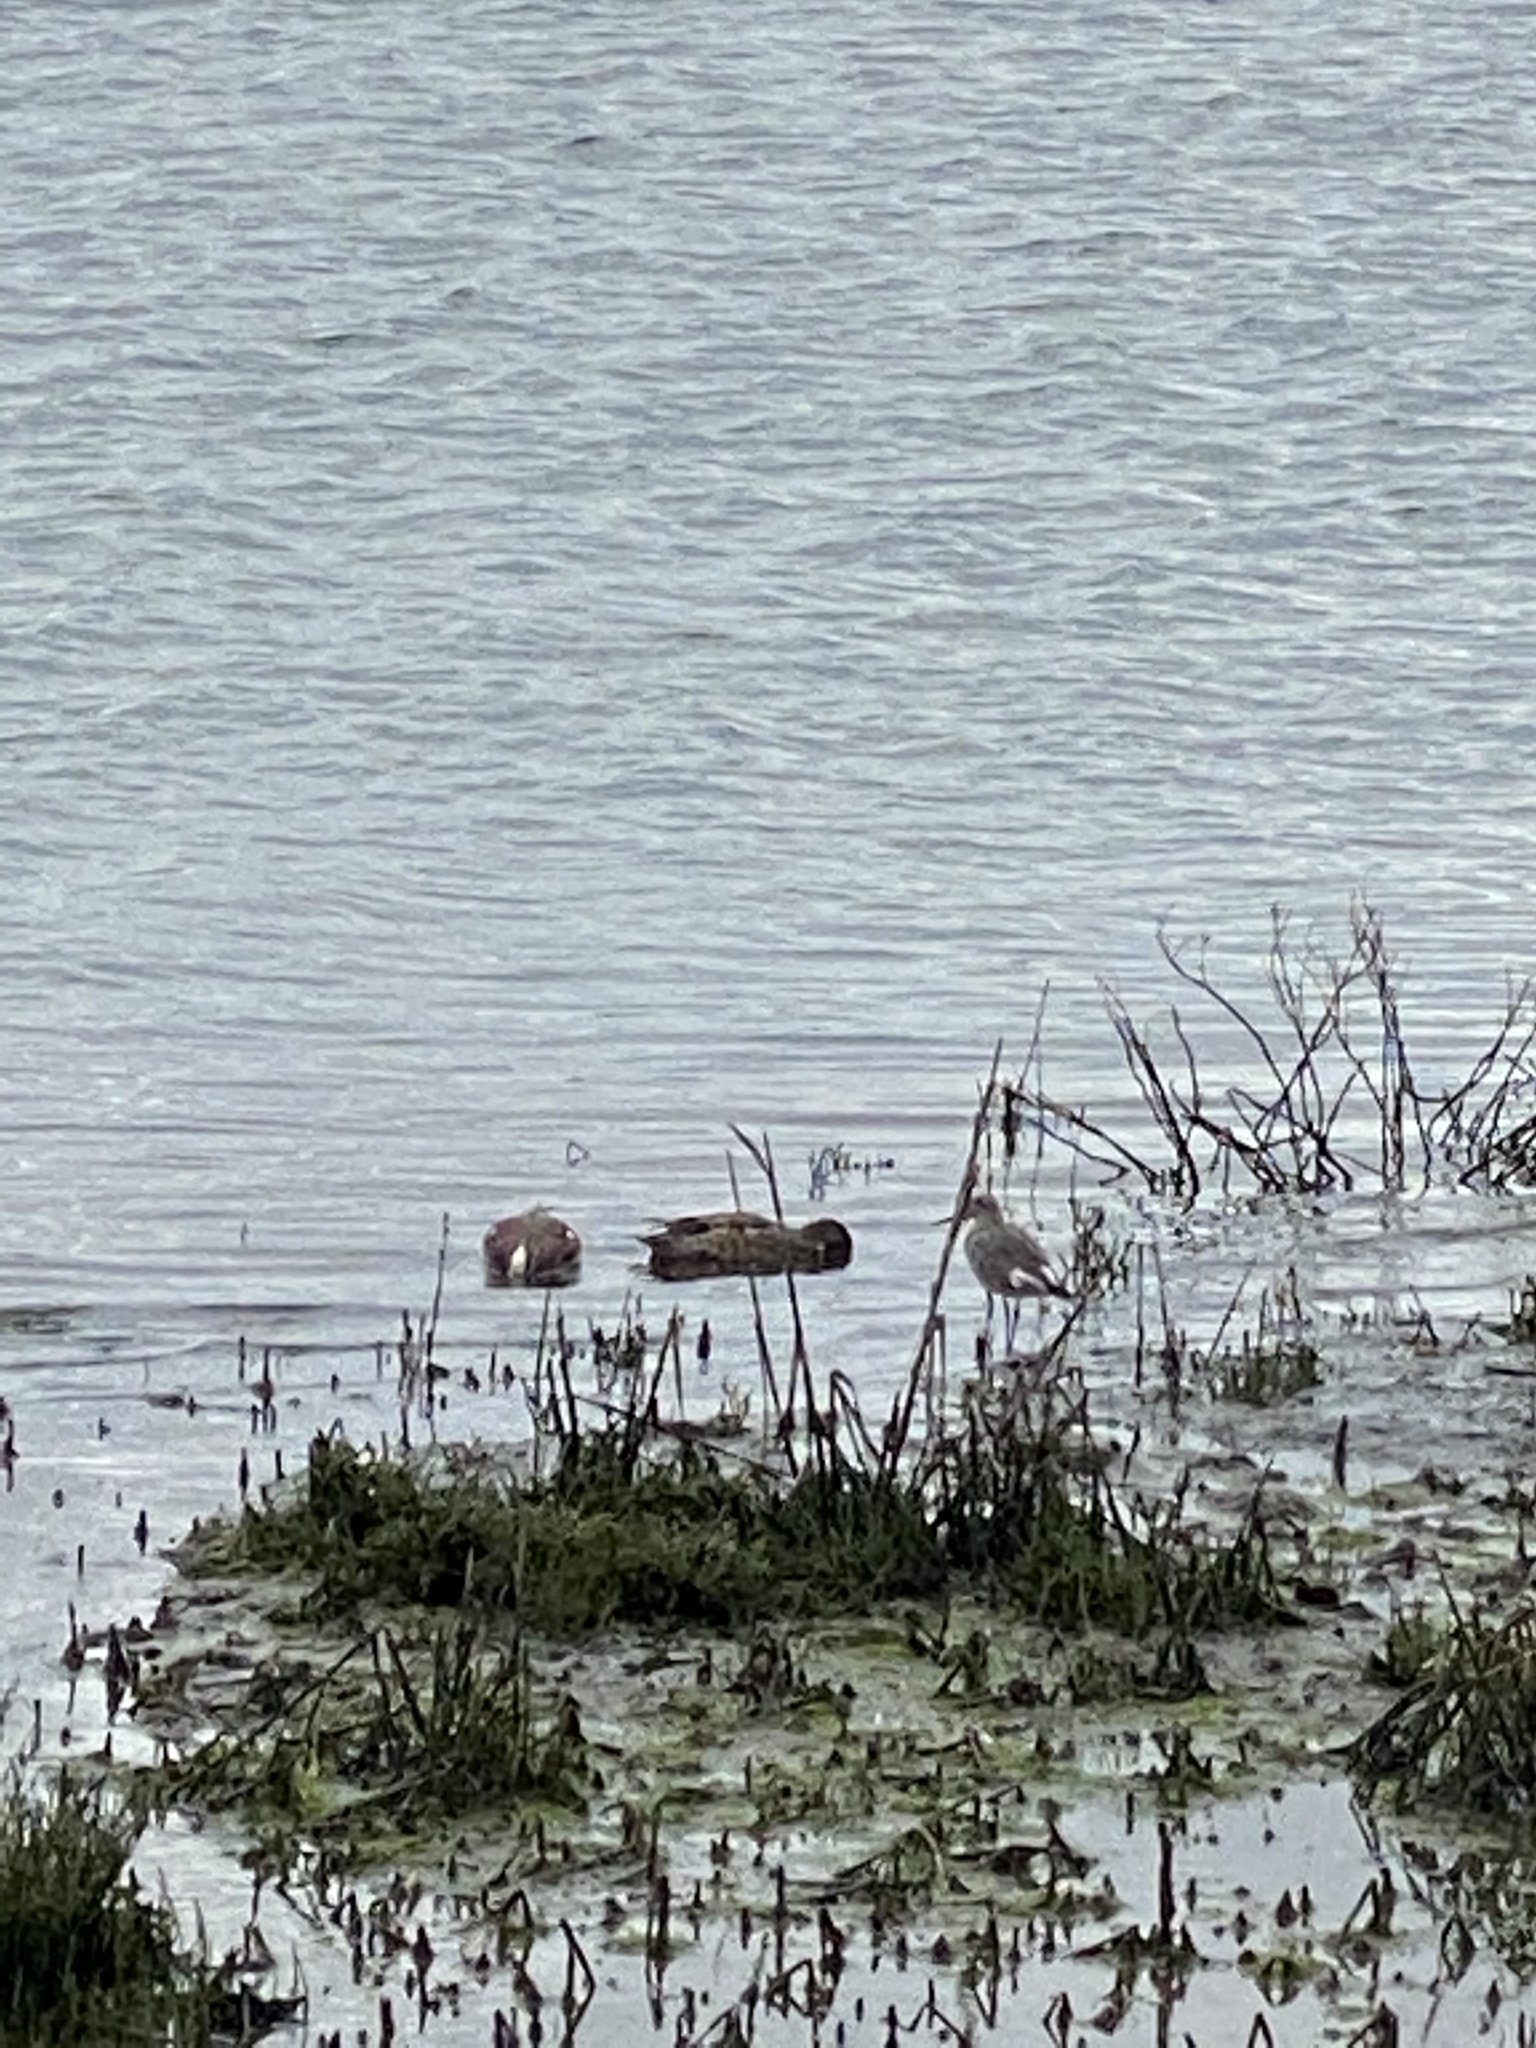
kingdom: Animalia
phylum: Chordata
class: Aves
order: Charadriiformes
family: Scolopacidae
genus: Tringa
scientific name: Tringa semipalmata
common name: Willet
